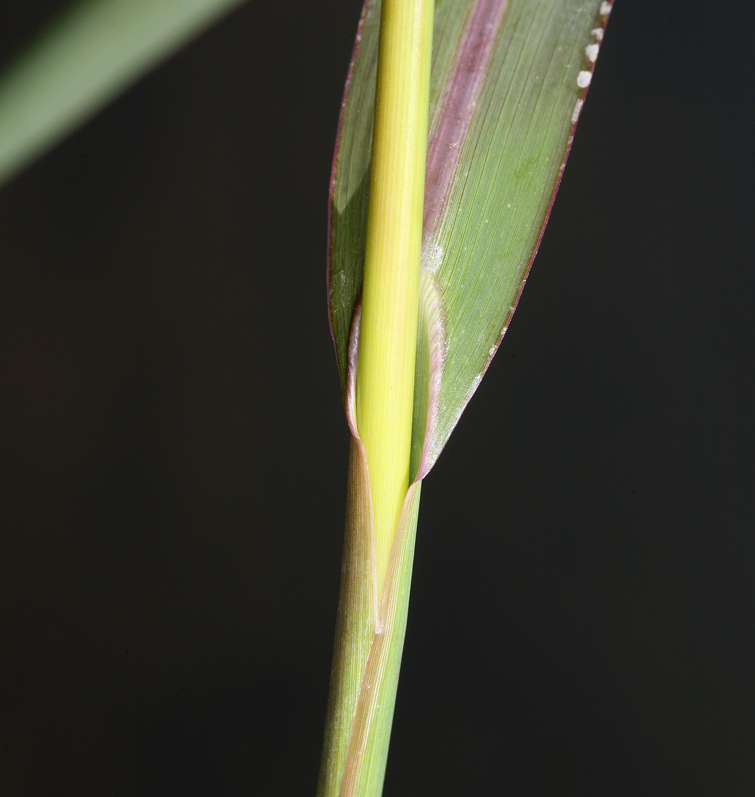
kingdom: Plantae
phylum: Tracheophyta
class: Liliopsida
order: Poales
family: Poaceae
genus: Echinochloa
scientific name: Echinochloa crus-galli
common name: Cockspur
